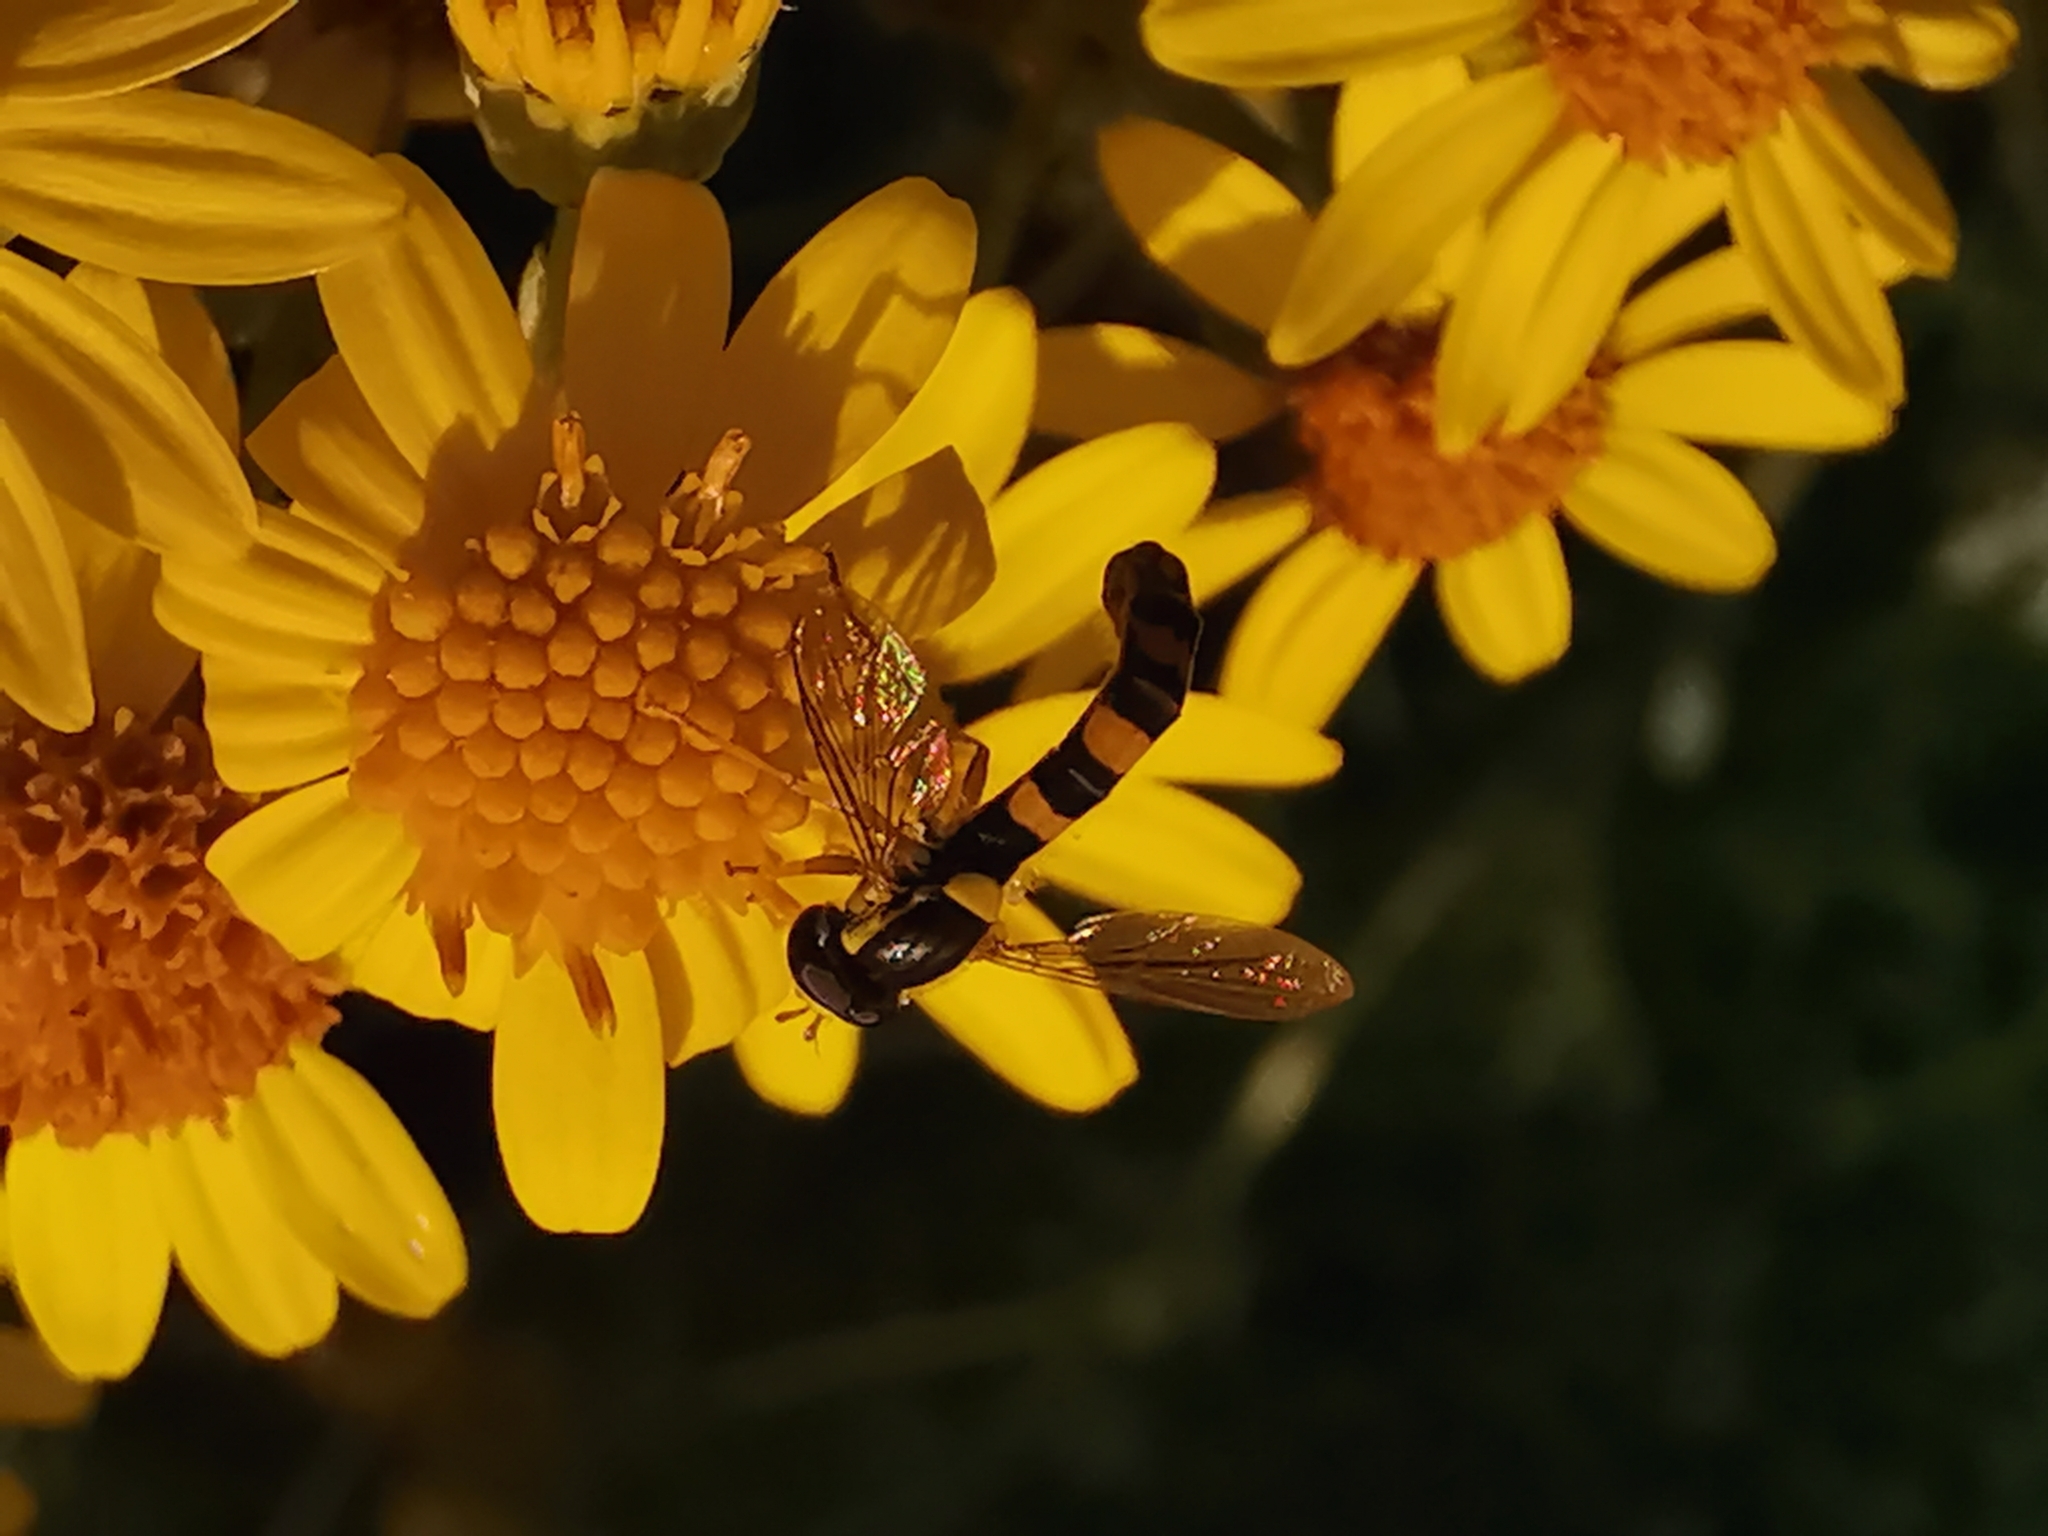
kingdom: Animalia
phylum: Arthropoda
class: Insecta
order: Diptera
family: Syrphidae
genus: Sphaerophoria
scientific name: Sphaerophoria scripta
